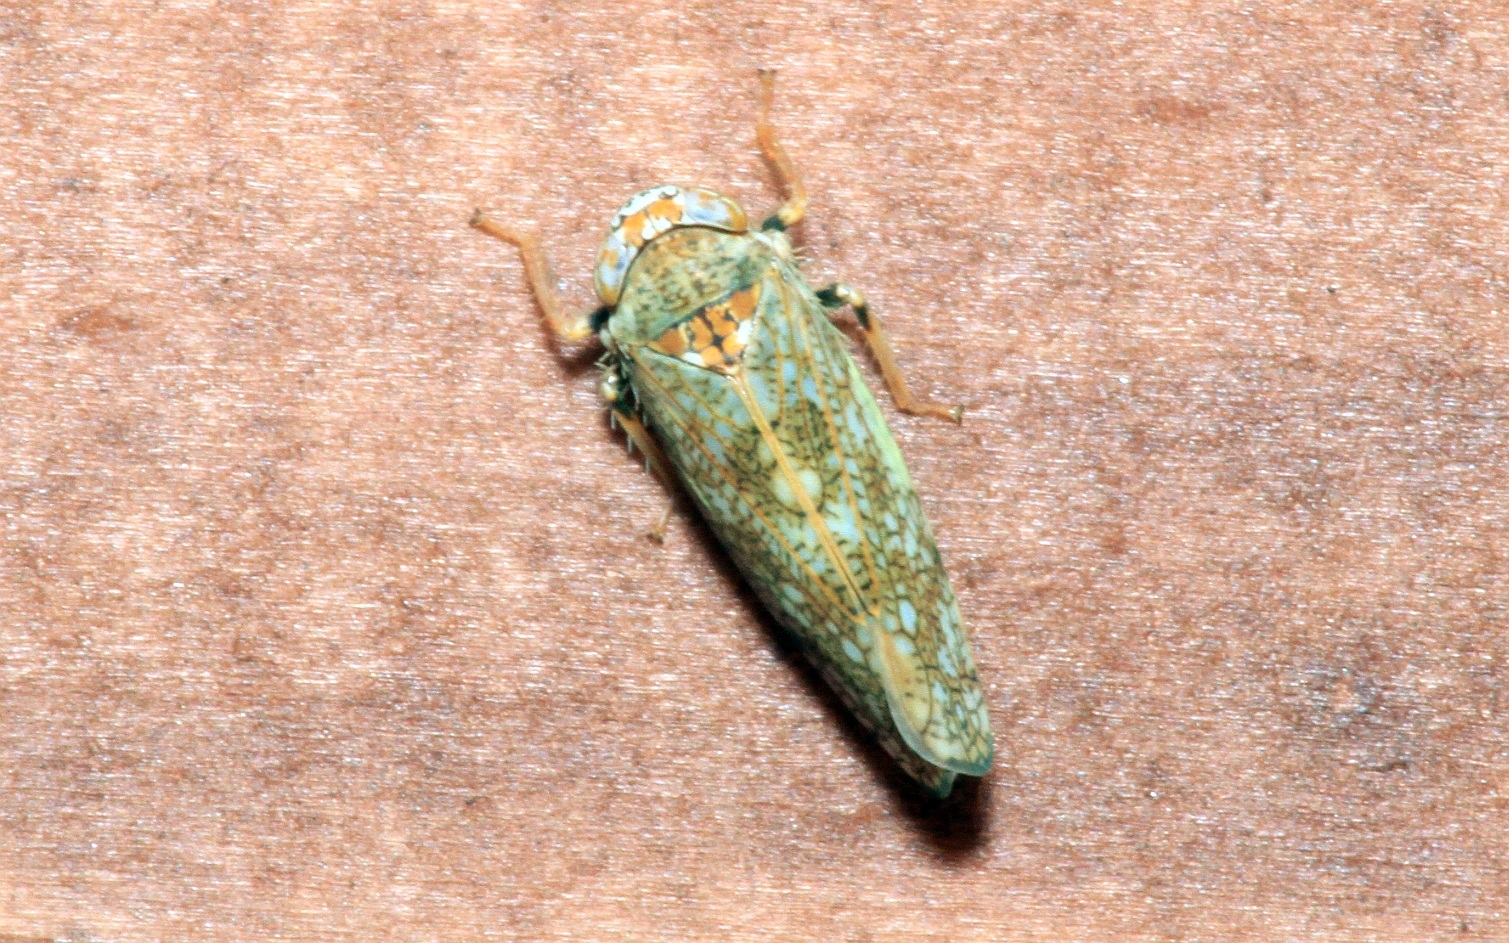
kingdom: Animalia
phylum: Arthropoda
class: Insecta
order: Hemiptera
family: Cicadellidae
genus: Orientus
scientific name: Orientus ishidae
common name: Japanese leafhopper
